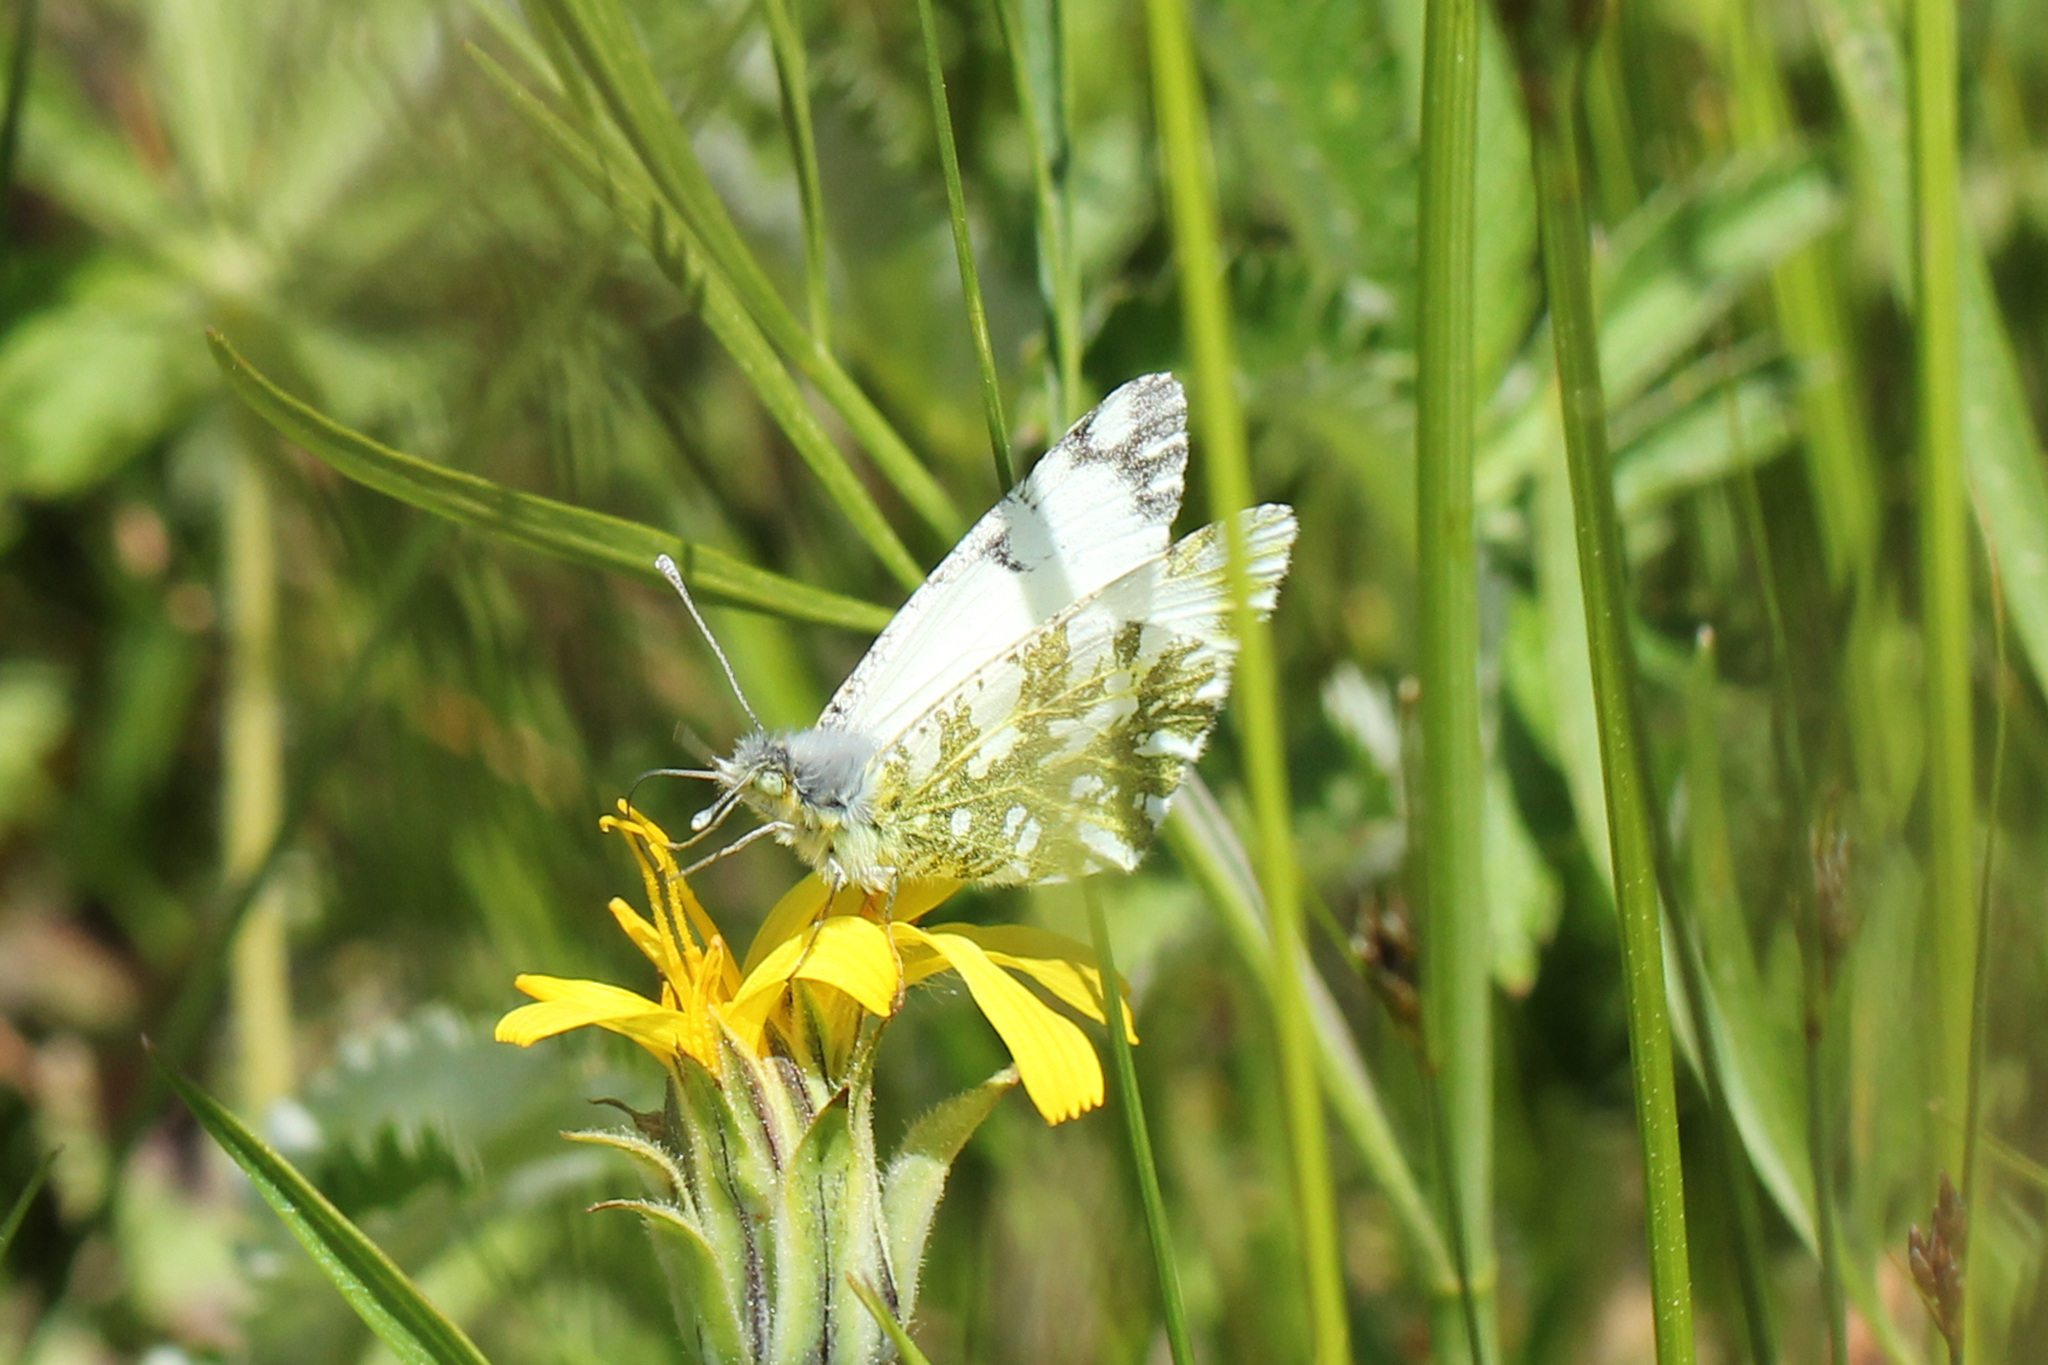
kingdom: Animalia
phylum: Arthropoda
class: Insecta
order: Lepidoptera
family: Pieridae
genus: Euchloe
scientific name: Euchloe ausonides
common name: Creamy marblewing
